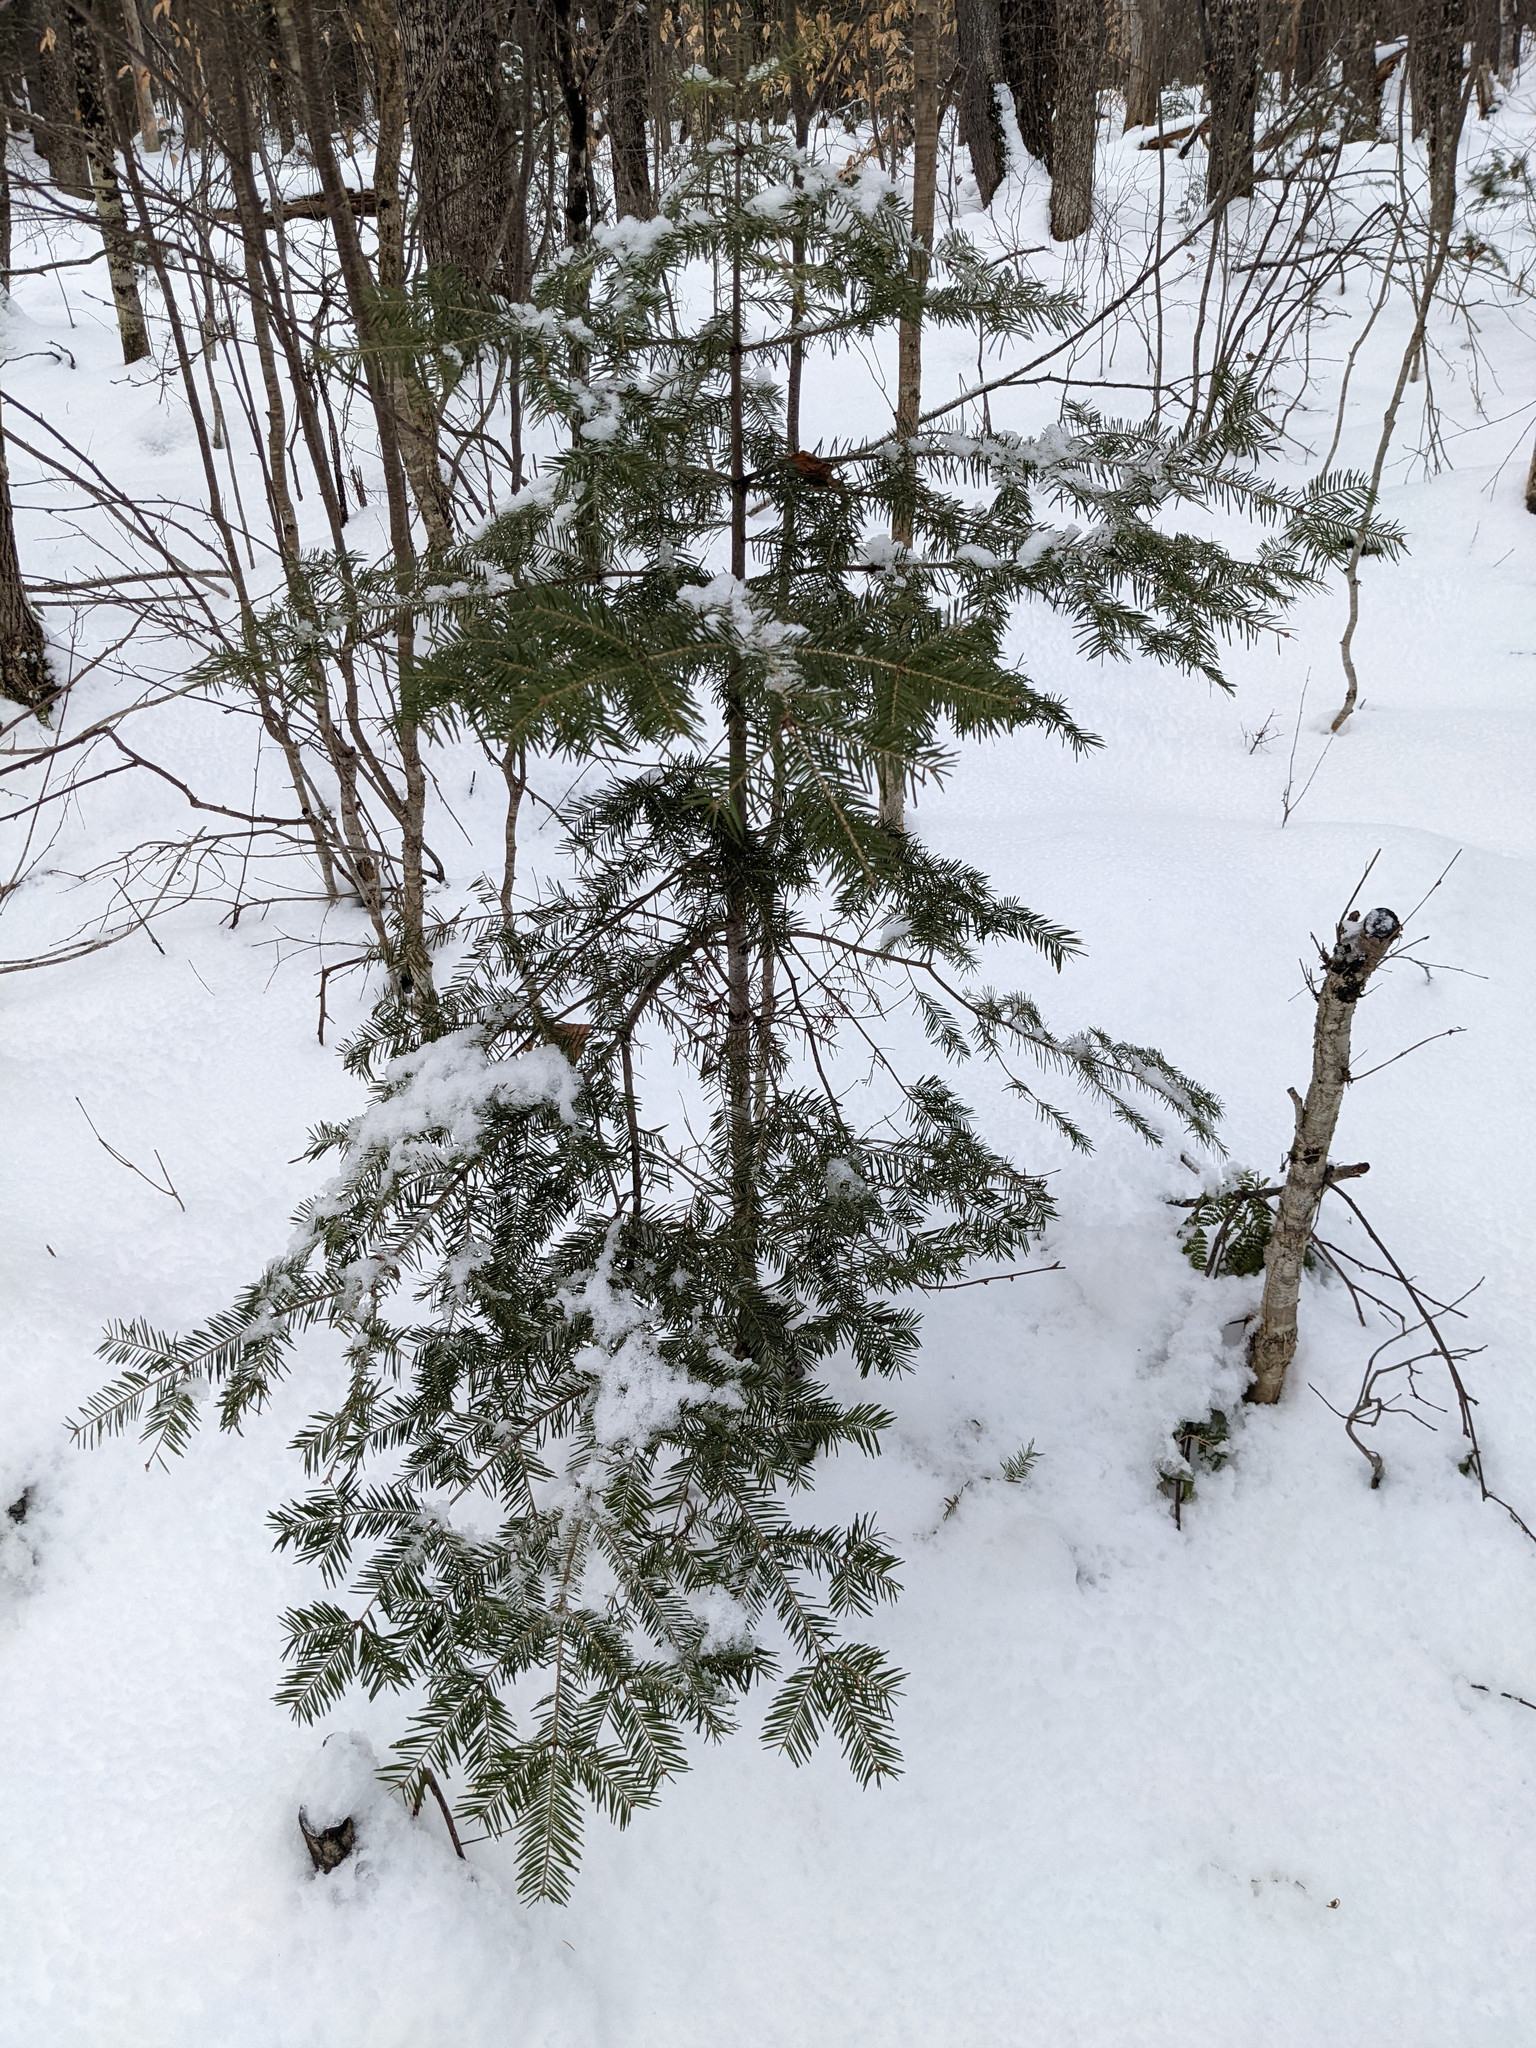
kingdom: Plantae
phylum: Tracheophyta
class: Pinopsida
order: Pinales
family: Pinaceae
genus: Abies
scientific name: Abies balsamea
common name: Balsam fir
